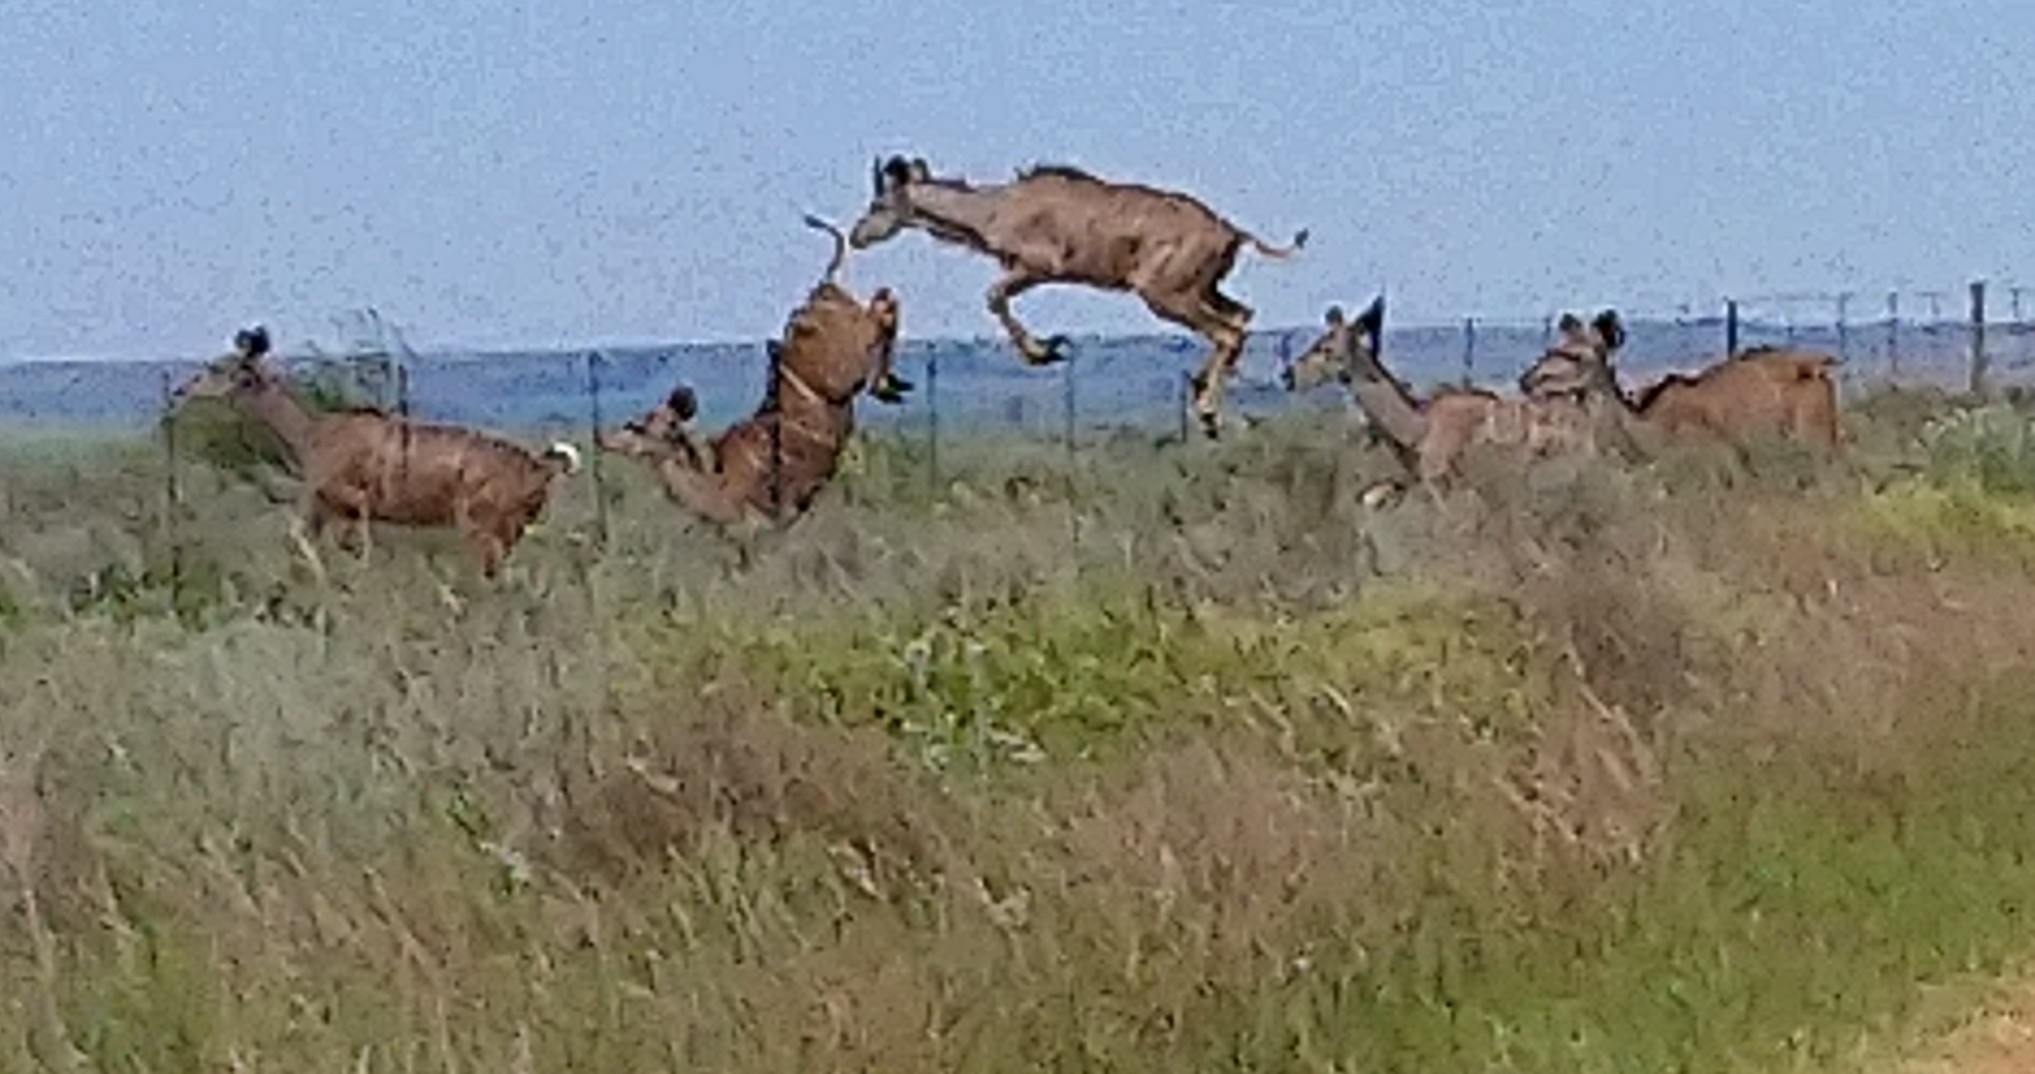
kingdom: Animalia
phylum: Chordata
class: Mammalia
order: Artiodactyla
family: Bovidae
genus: Tragelaphus
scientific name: Tragelaphus strepsiceros
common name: Greater kudu
